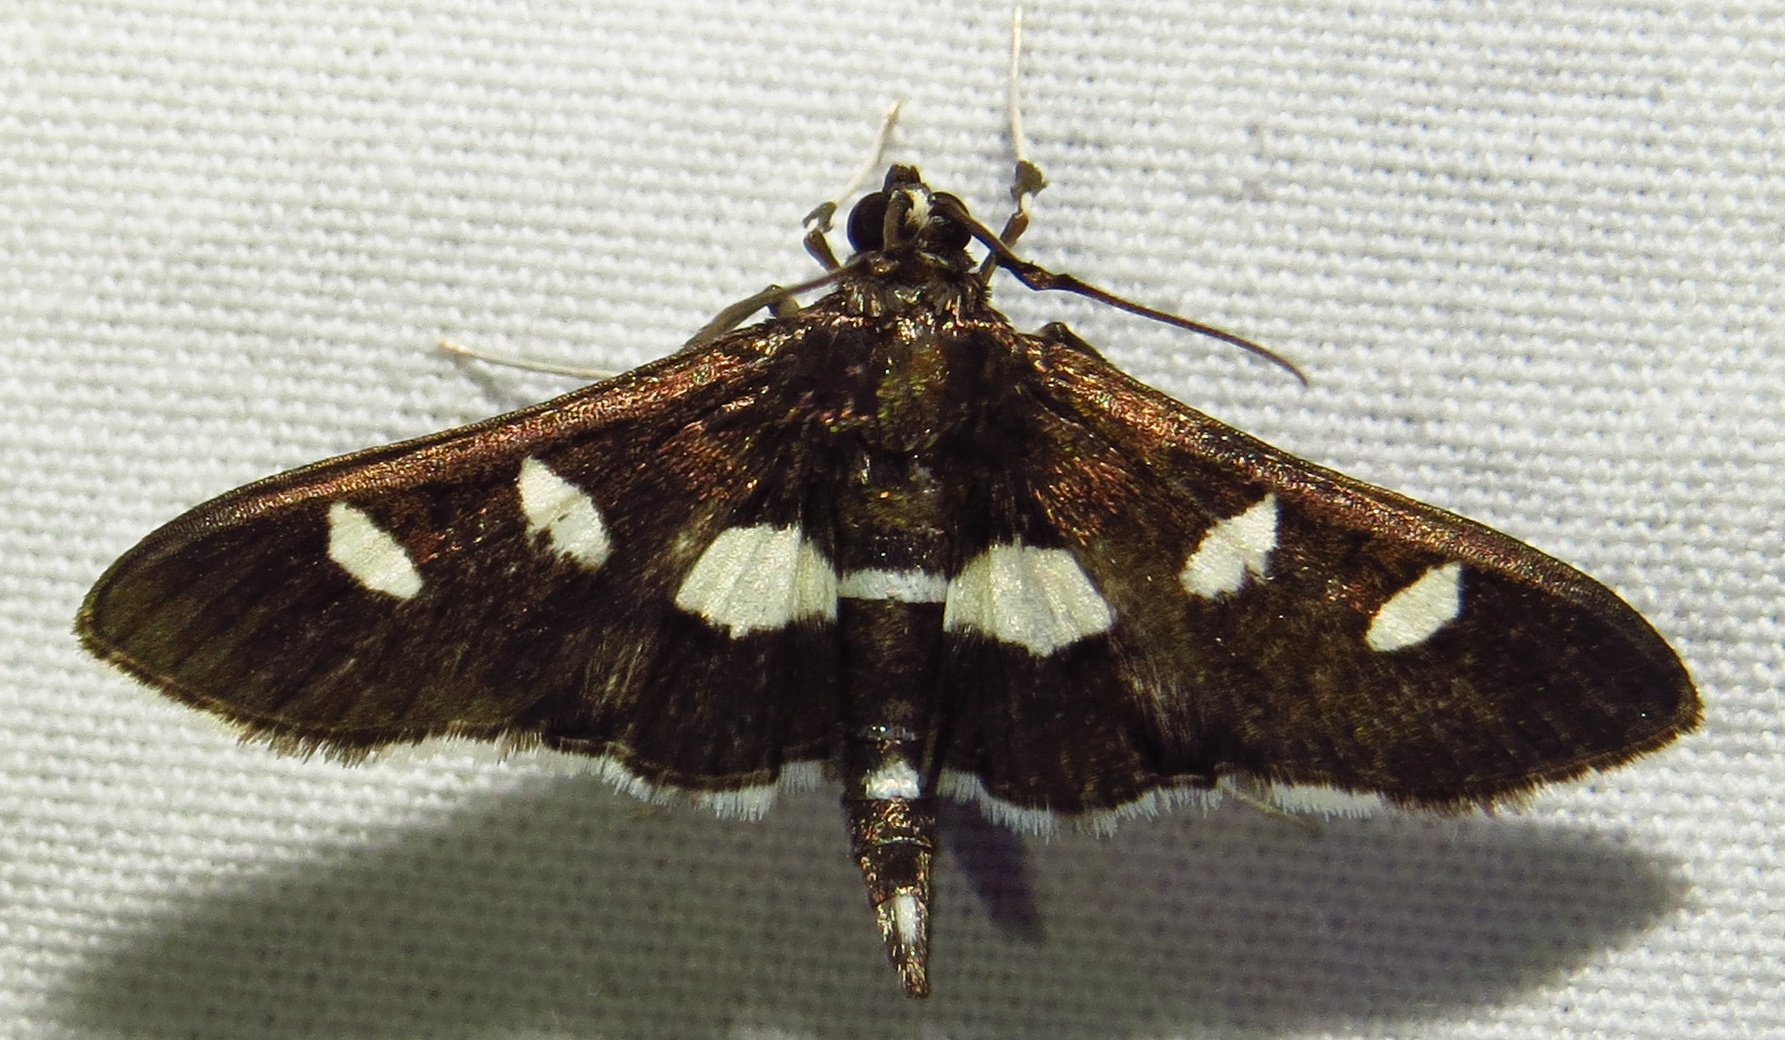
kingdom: Animalia
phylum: Arthropoda
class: Insecta
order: Lepidoptera
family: Crambidae
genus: Desmia
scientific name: Desmia
